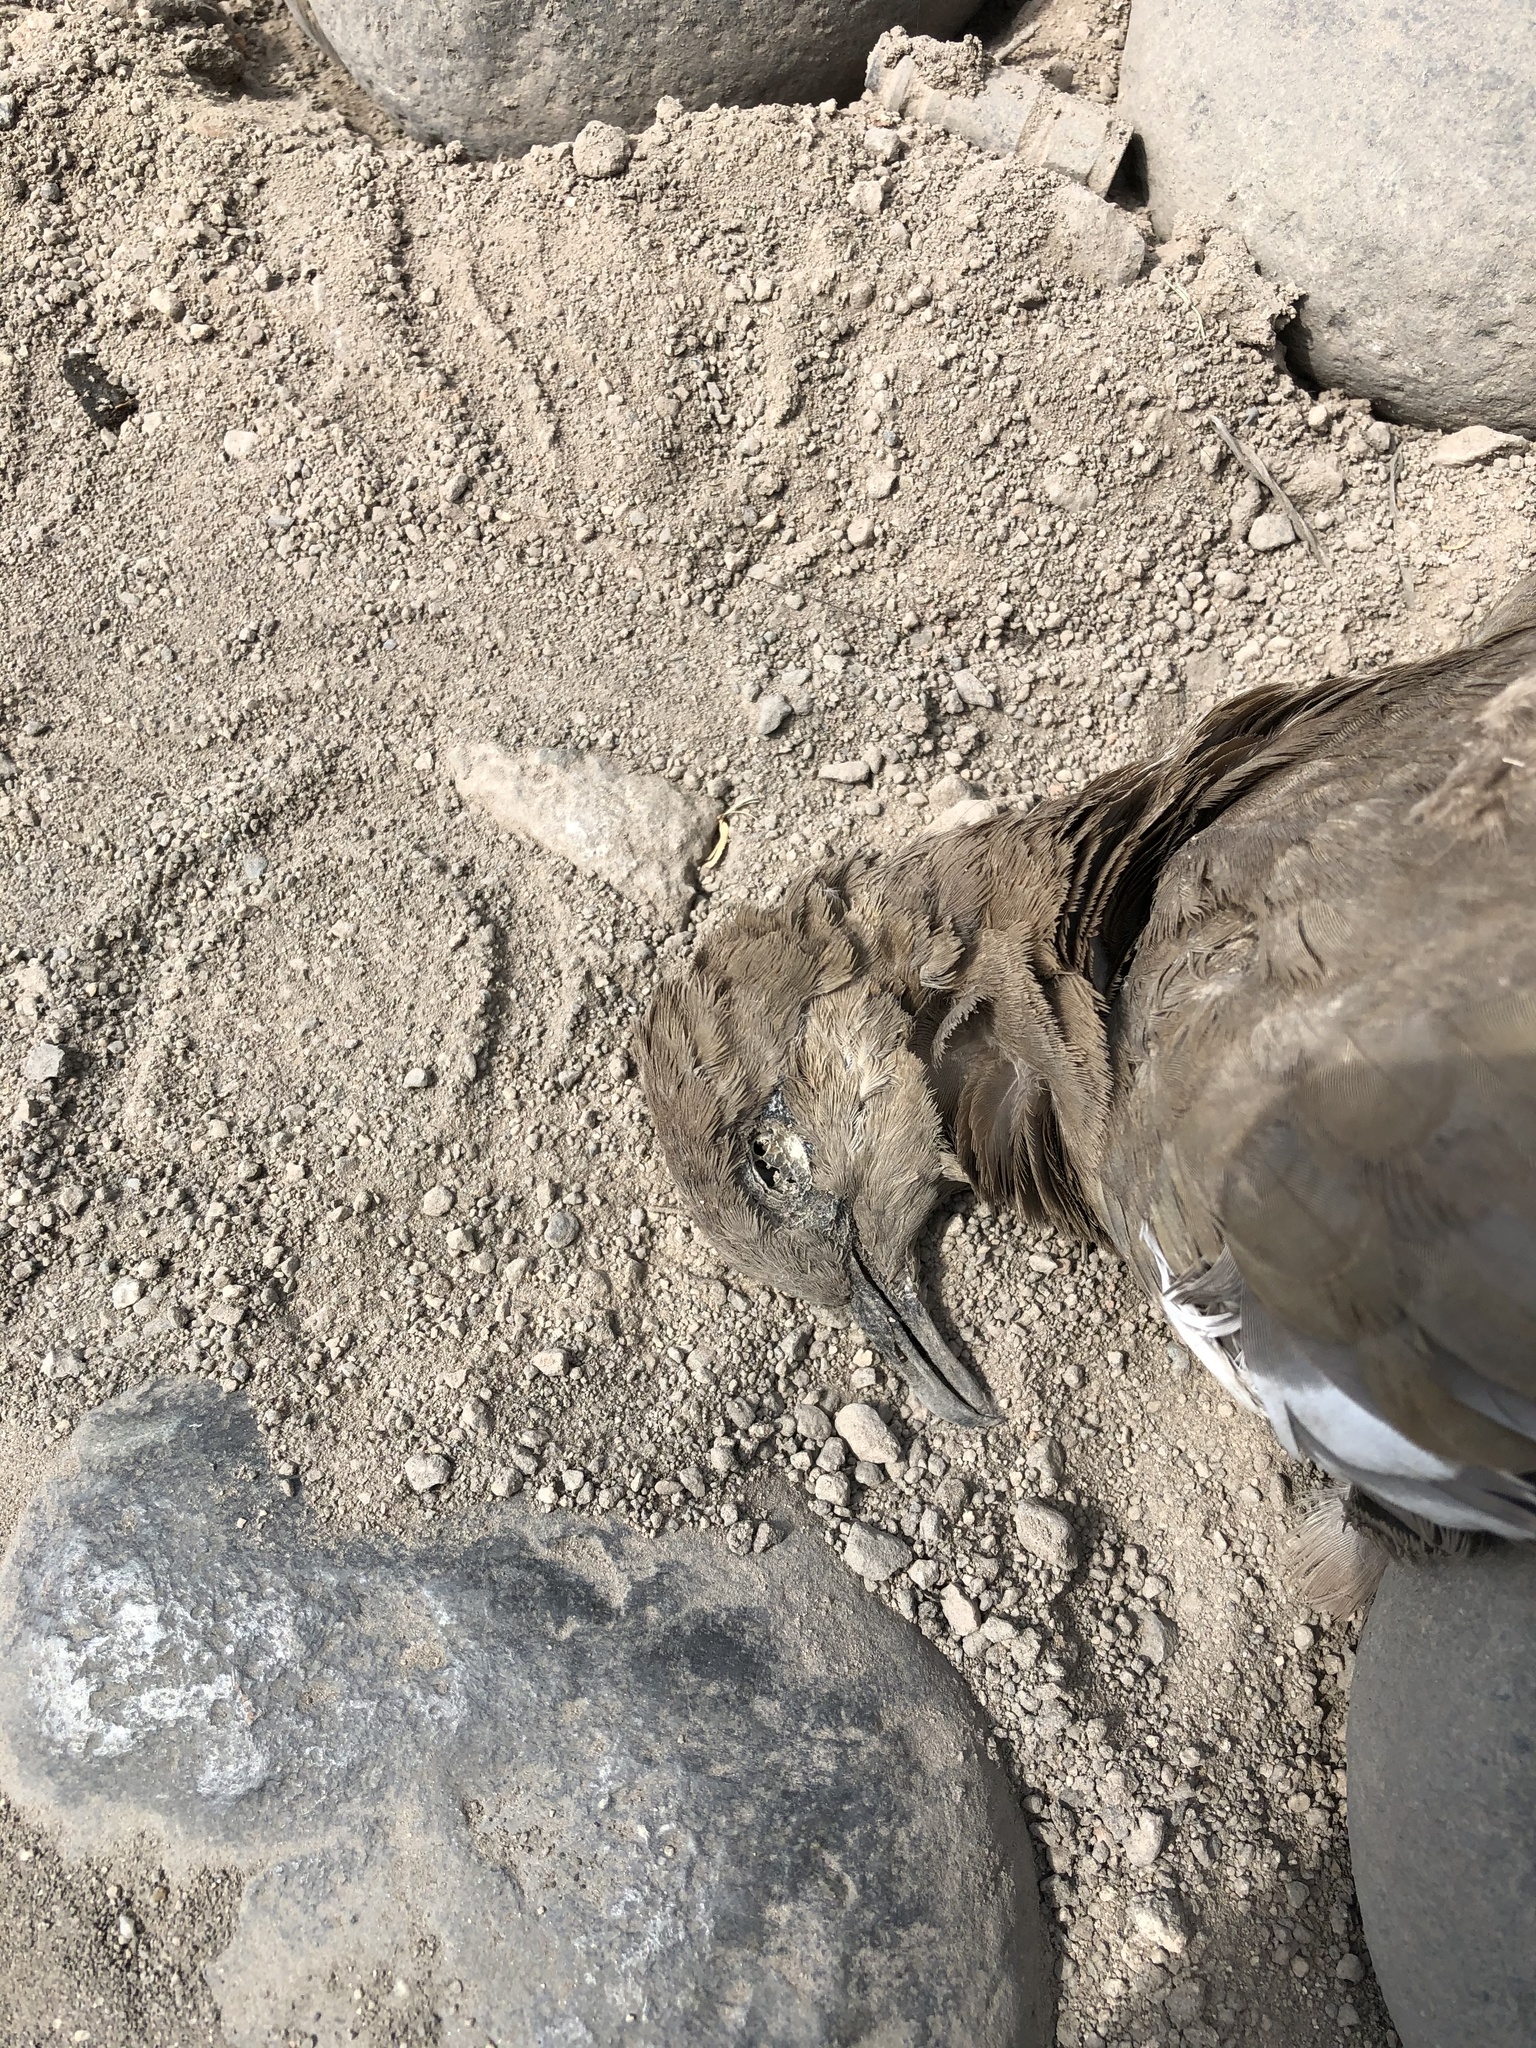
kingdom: Animalia
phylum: Chordata
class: Aves
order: Columbiformes
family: Columbidae
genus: Zenaida
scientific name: Zenaida meloda
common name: West peruvian dove
